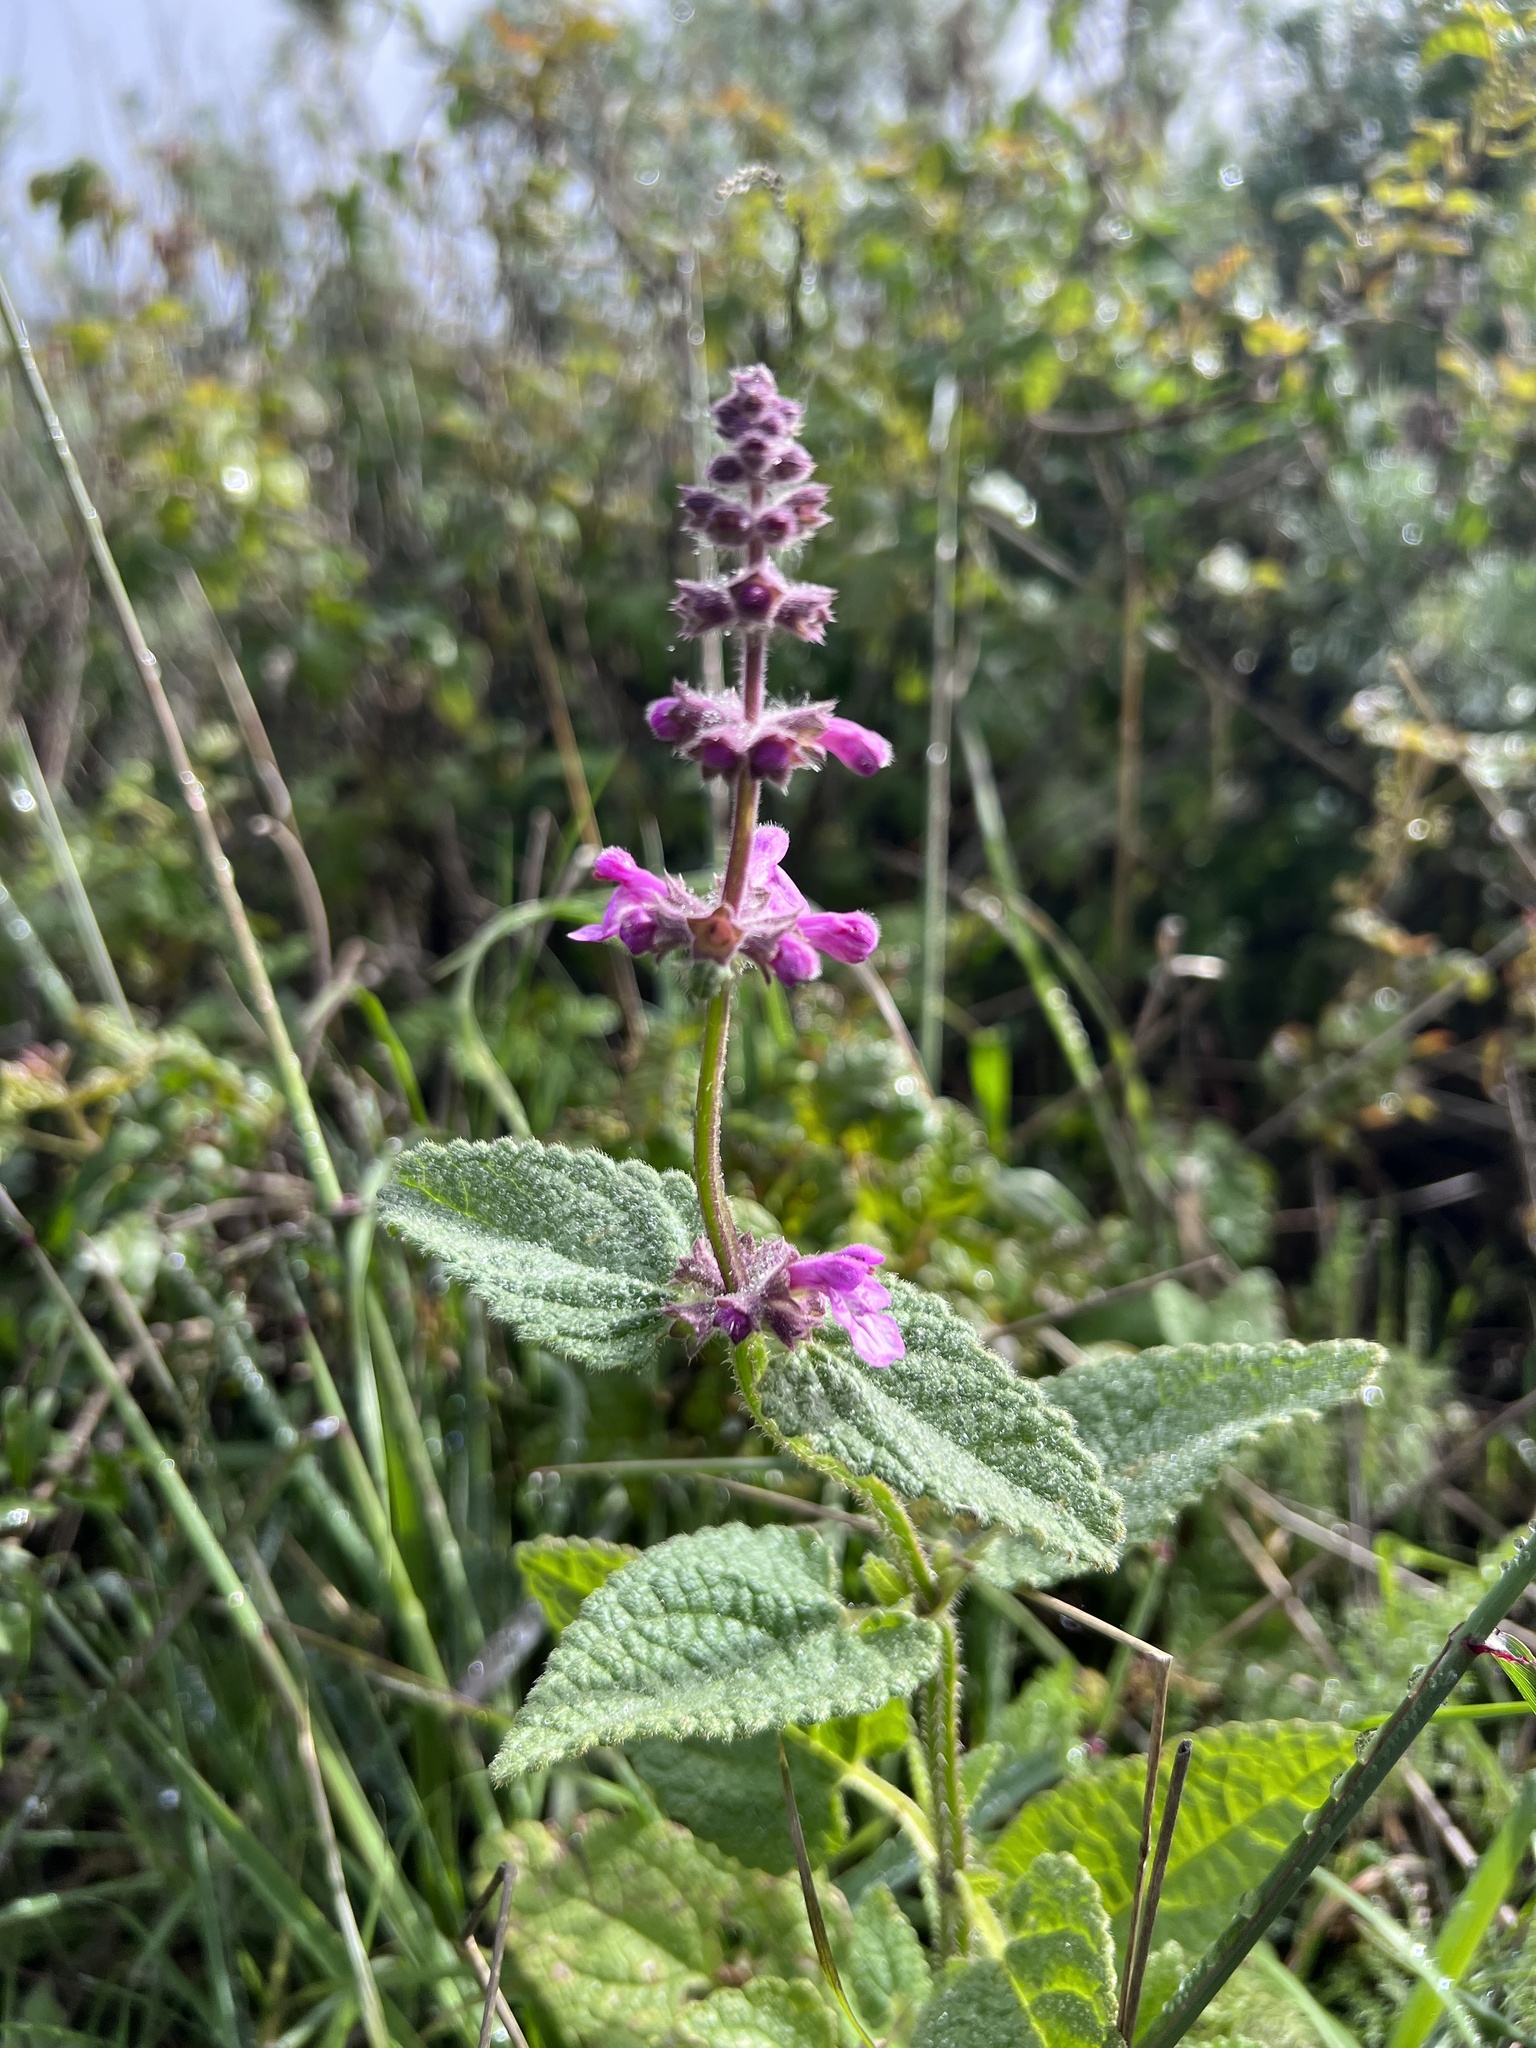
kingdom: Plantae
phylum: Tracheophyta
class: Magnoliopsida
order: Lamiales
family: Lamiaceae
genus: Stachys
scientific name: Stachys bullata
